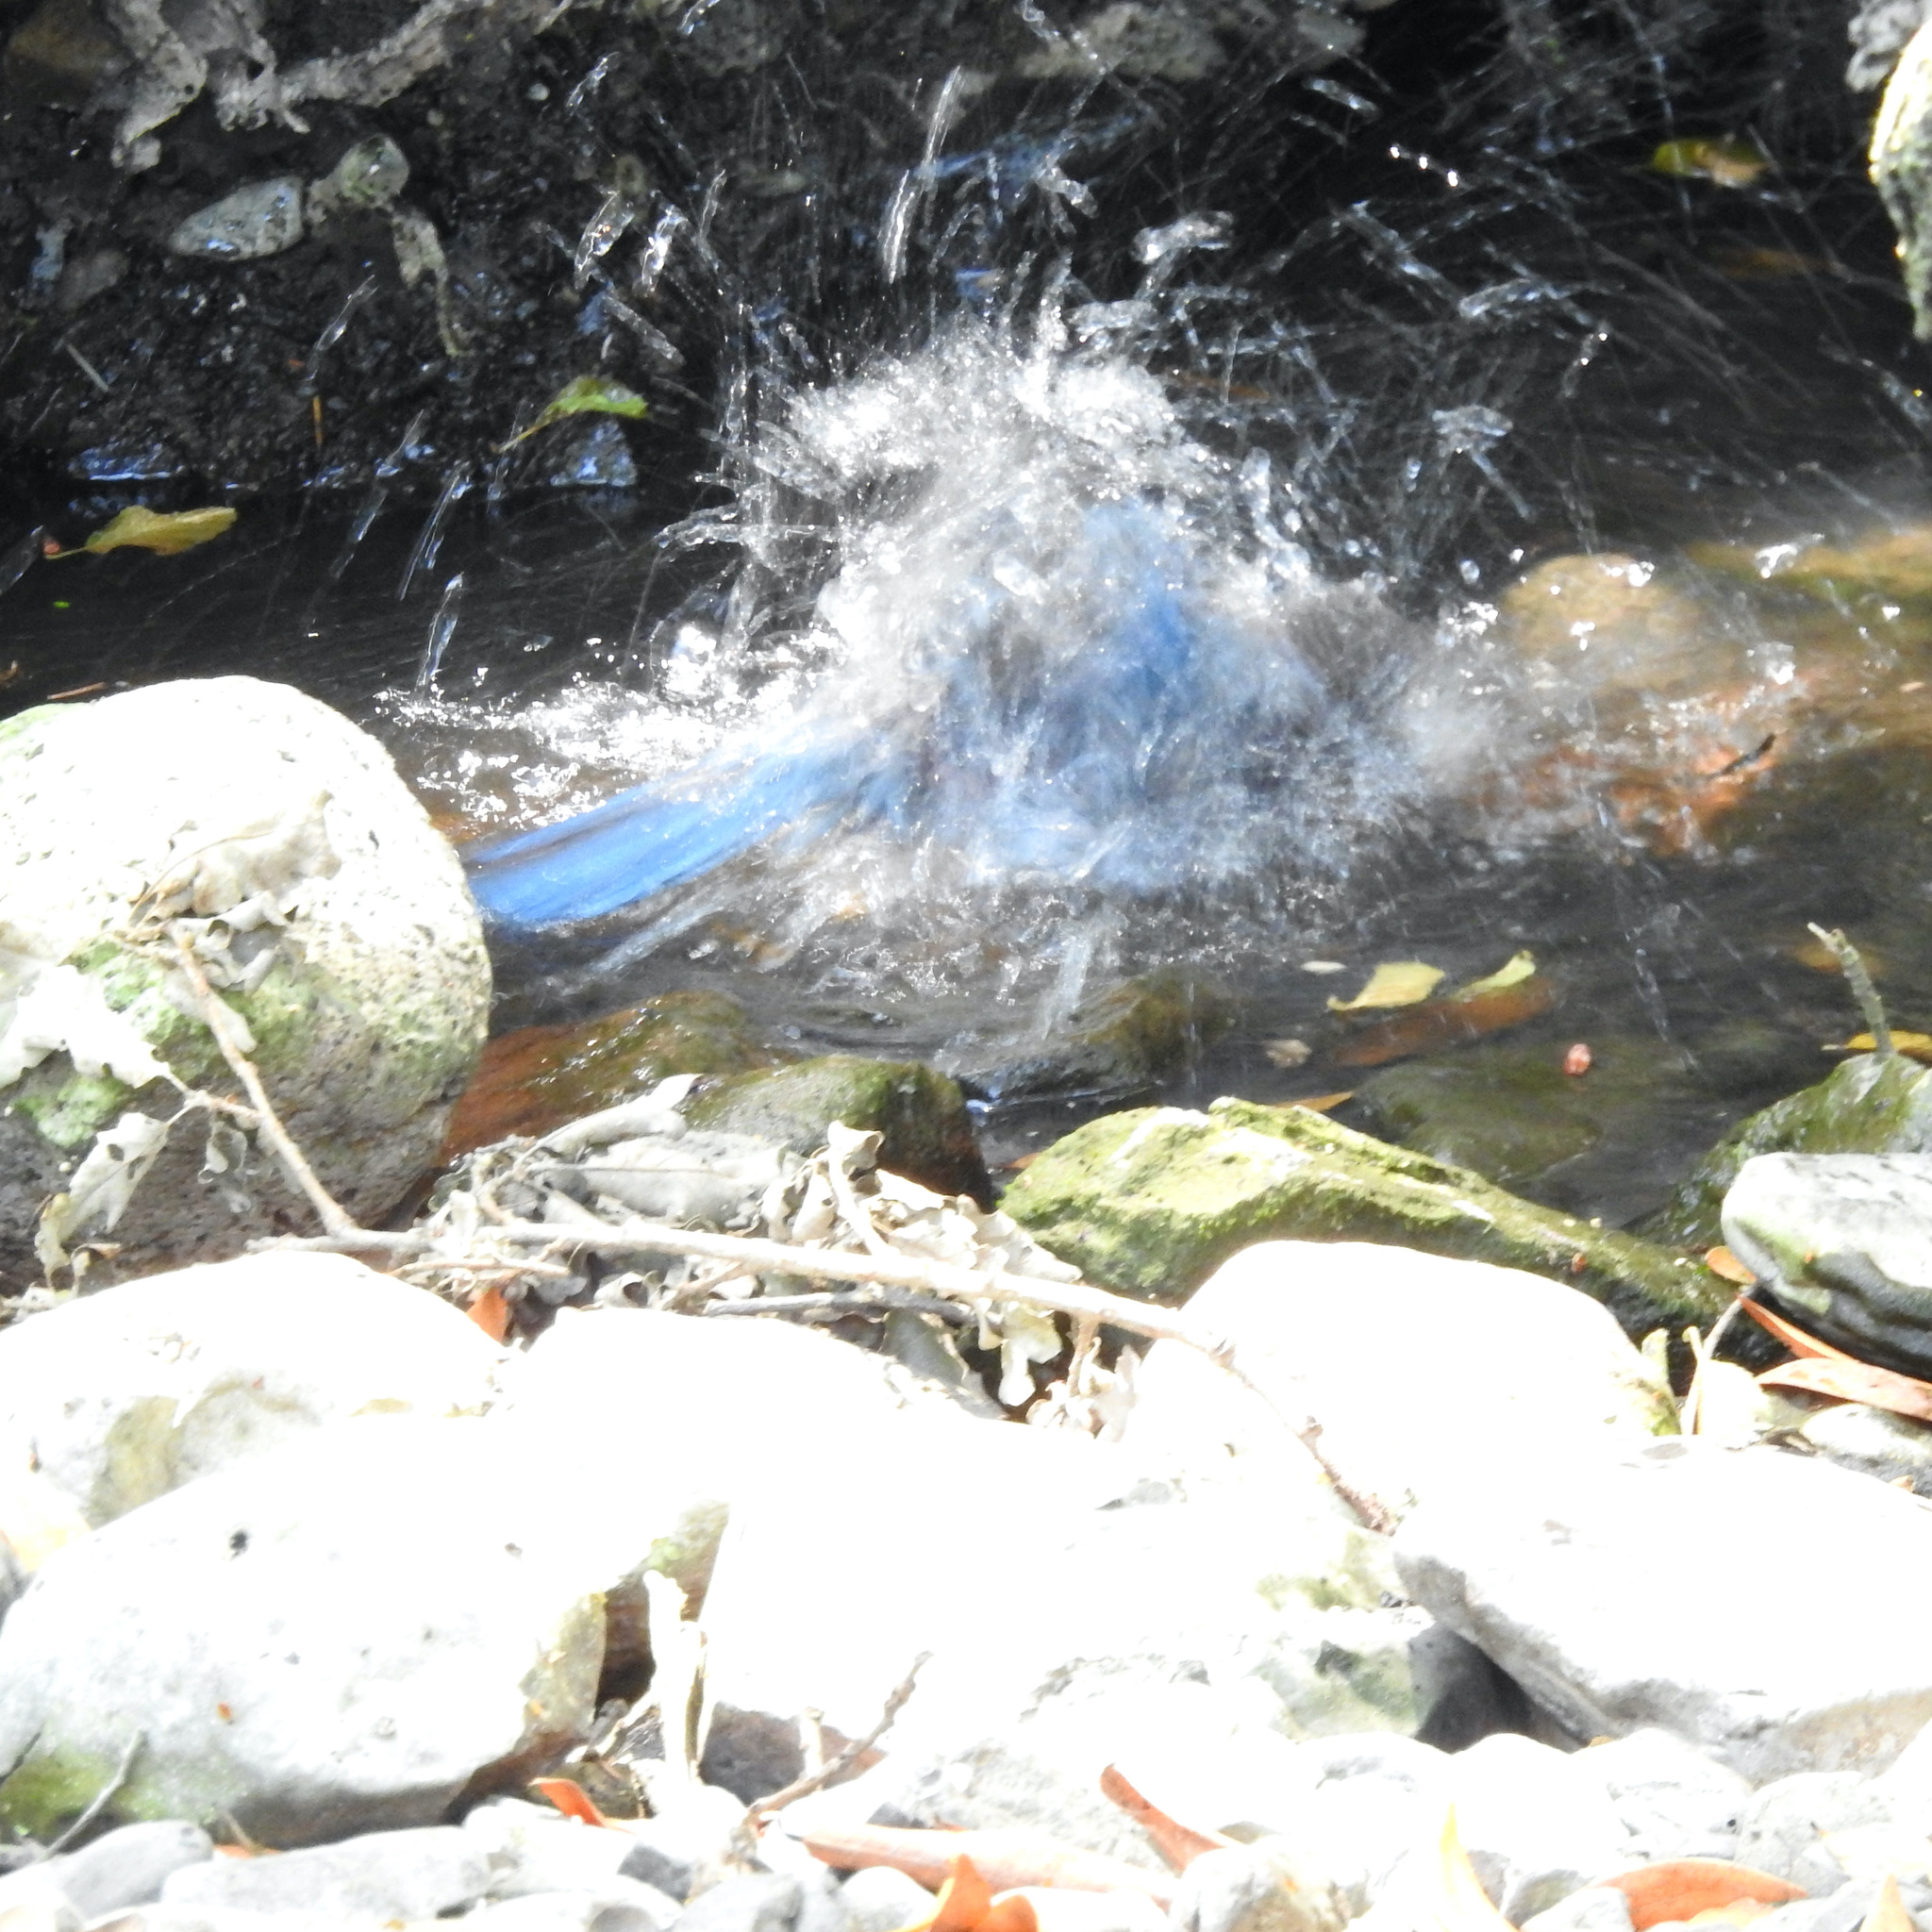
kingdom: Animalia
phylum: Chordata
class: Aves
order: Passeriformes
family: Corvidae
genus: Cyanocitta
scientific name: Cyanocitta stelleri
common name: Steller's jay
